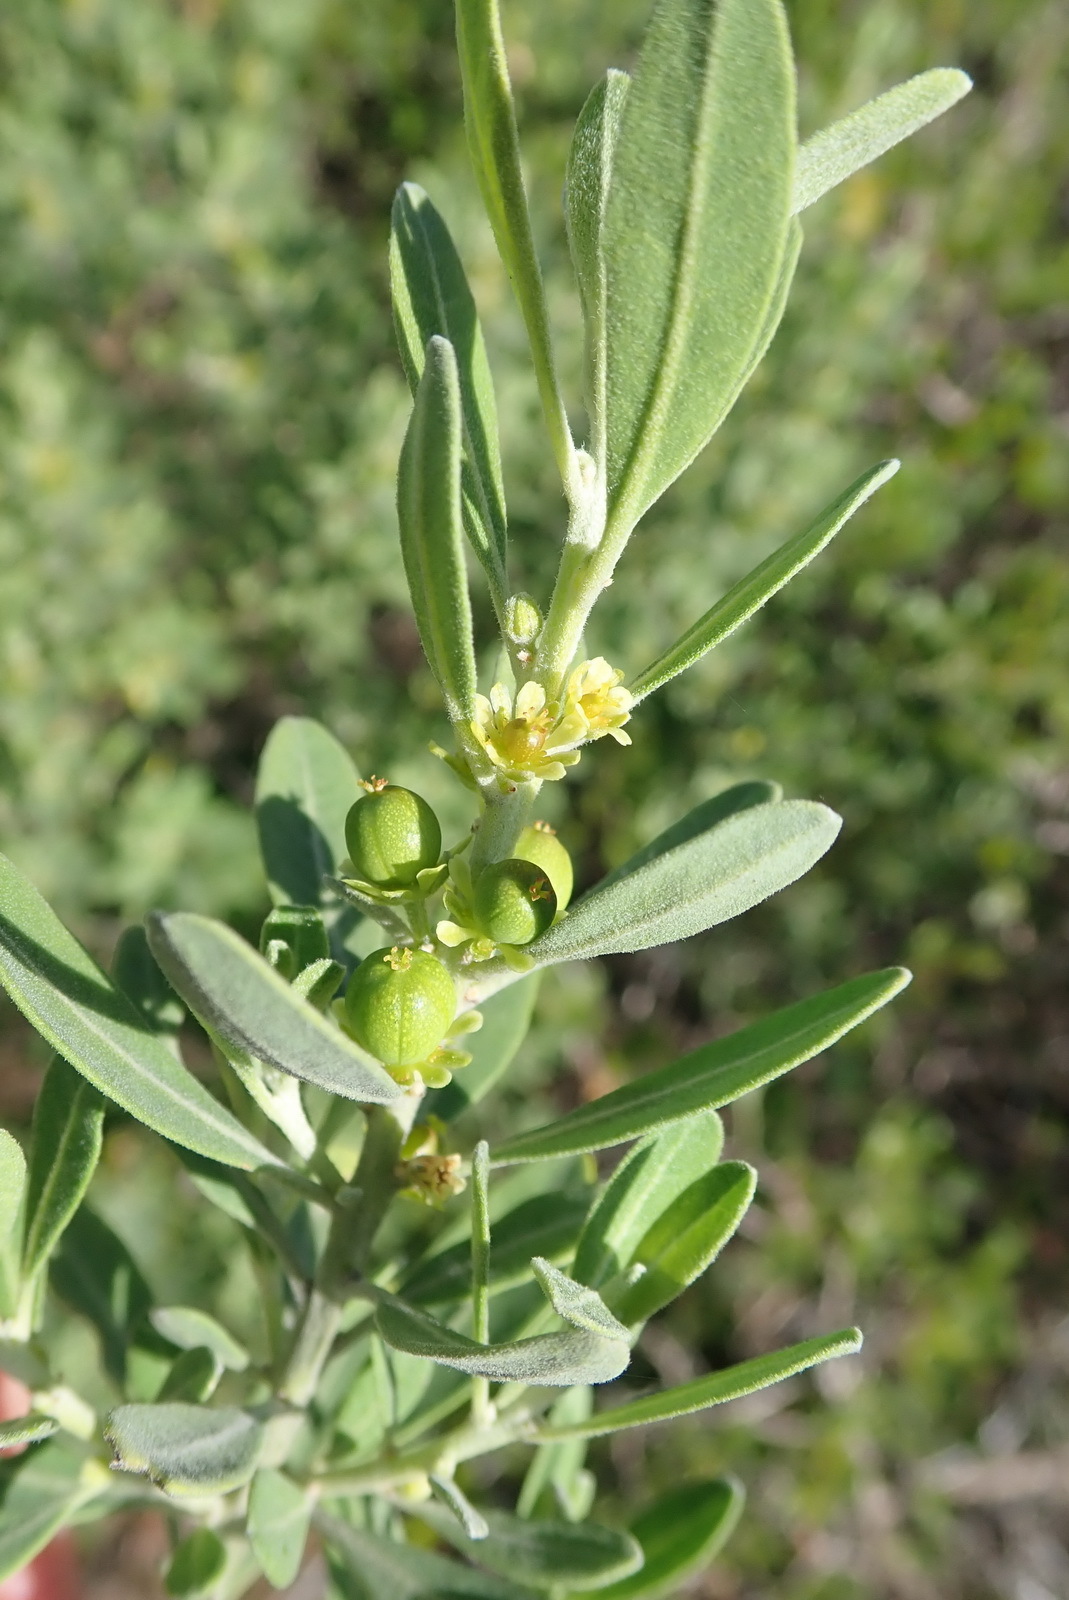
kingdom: Plantae
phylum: Tracheophyta
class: Magnoliopsida
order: Malpighiales
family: Peraceae
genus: Clutia
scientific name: Clutia daphnoides
